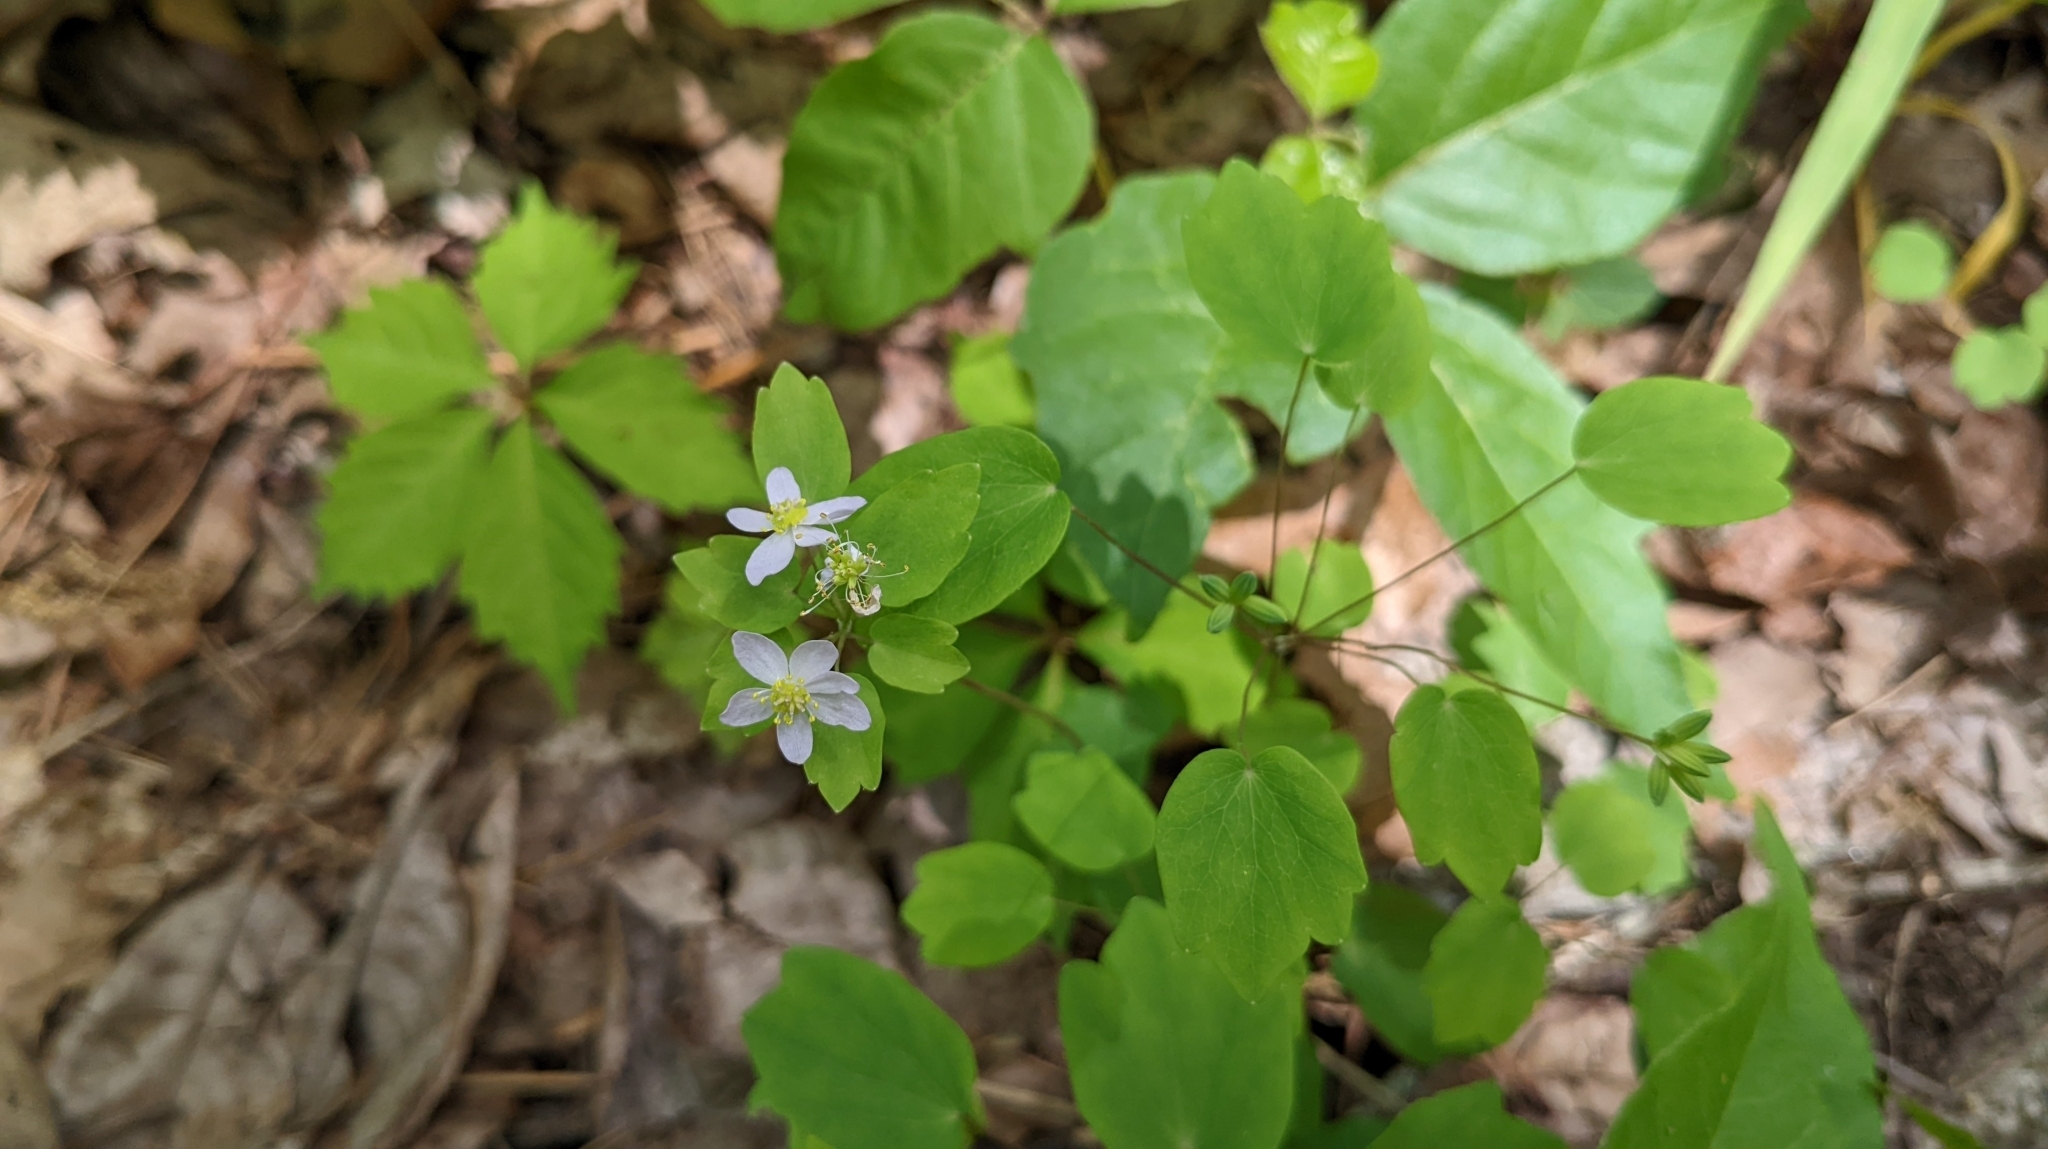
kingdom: Plantae
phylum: Tracheophyta
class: Magnoliopsida
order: Ranunculales
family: Ranunculaceae
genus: Thalictrum
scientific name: Thalictrum thalictroides
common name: Rue-anemone
